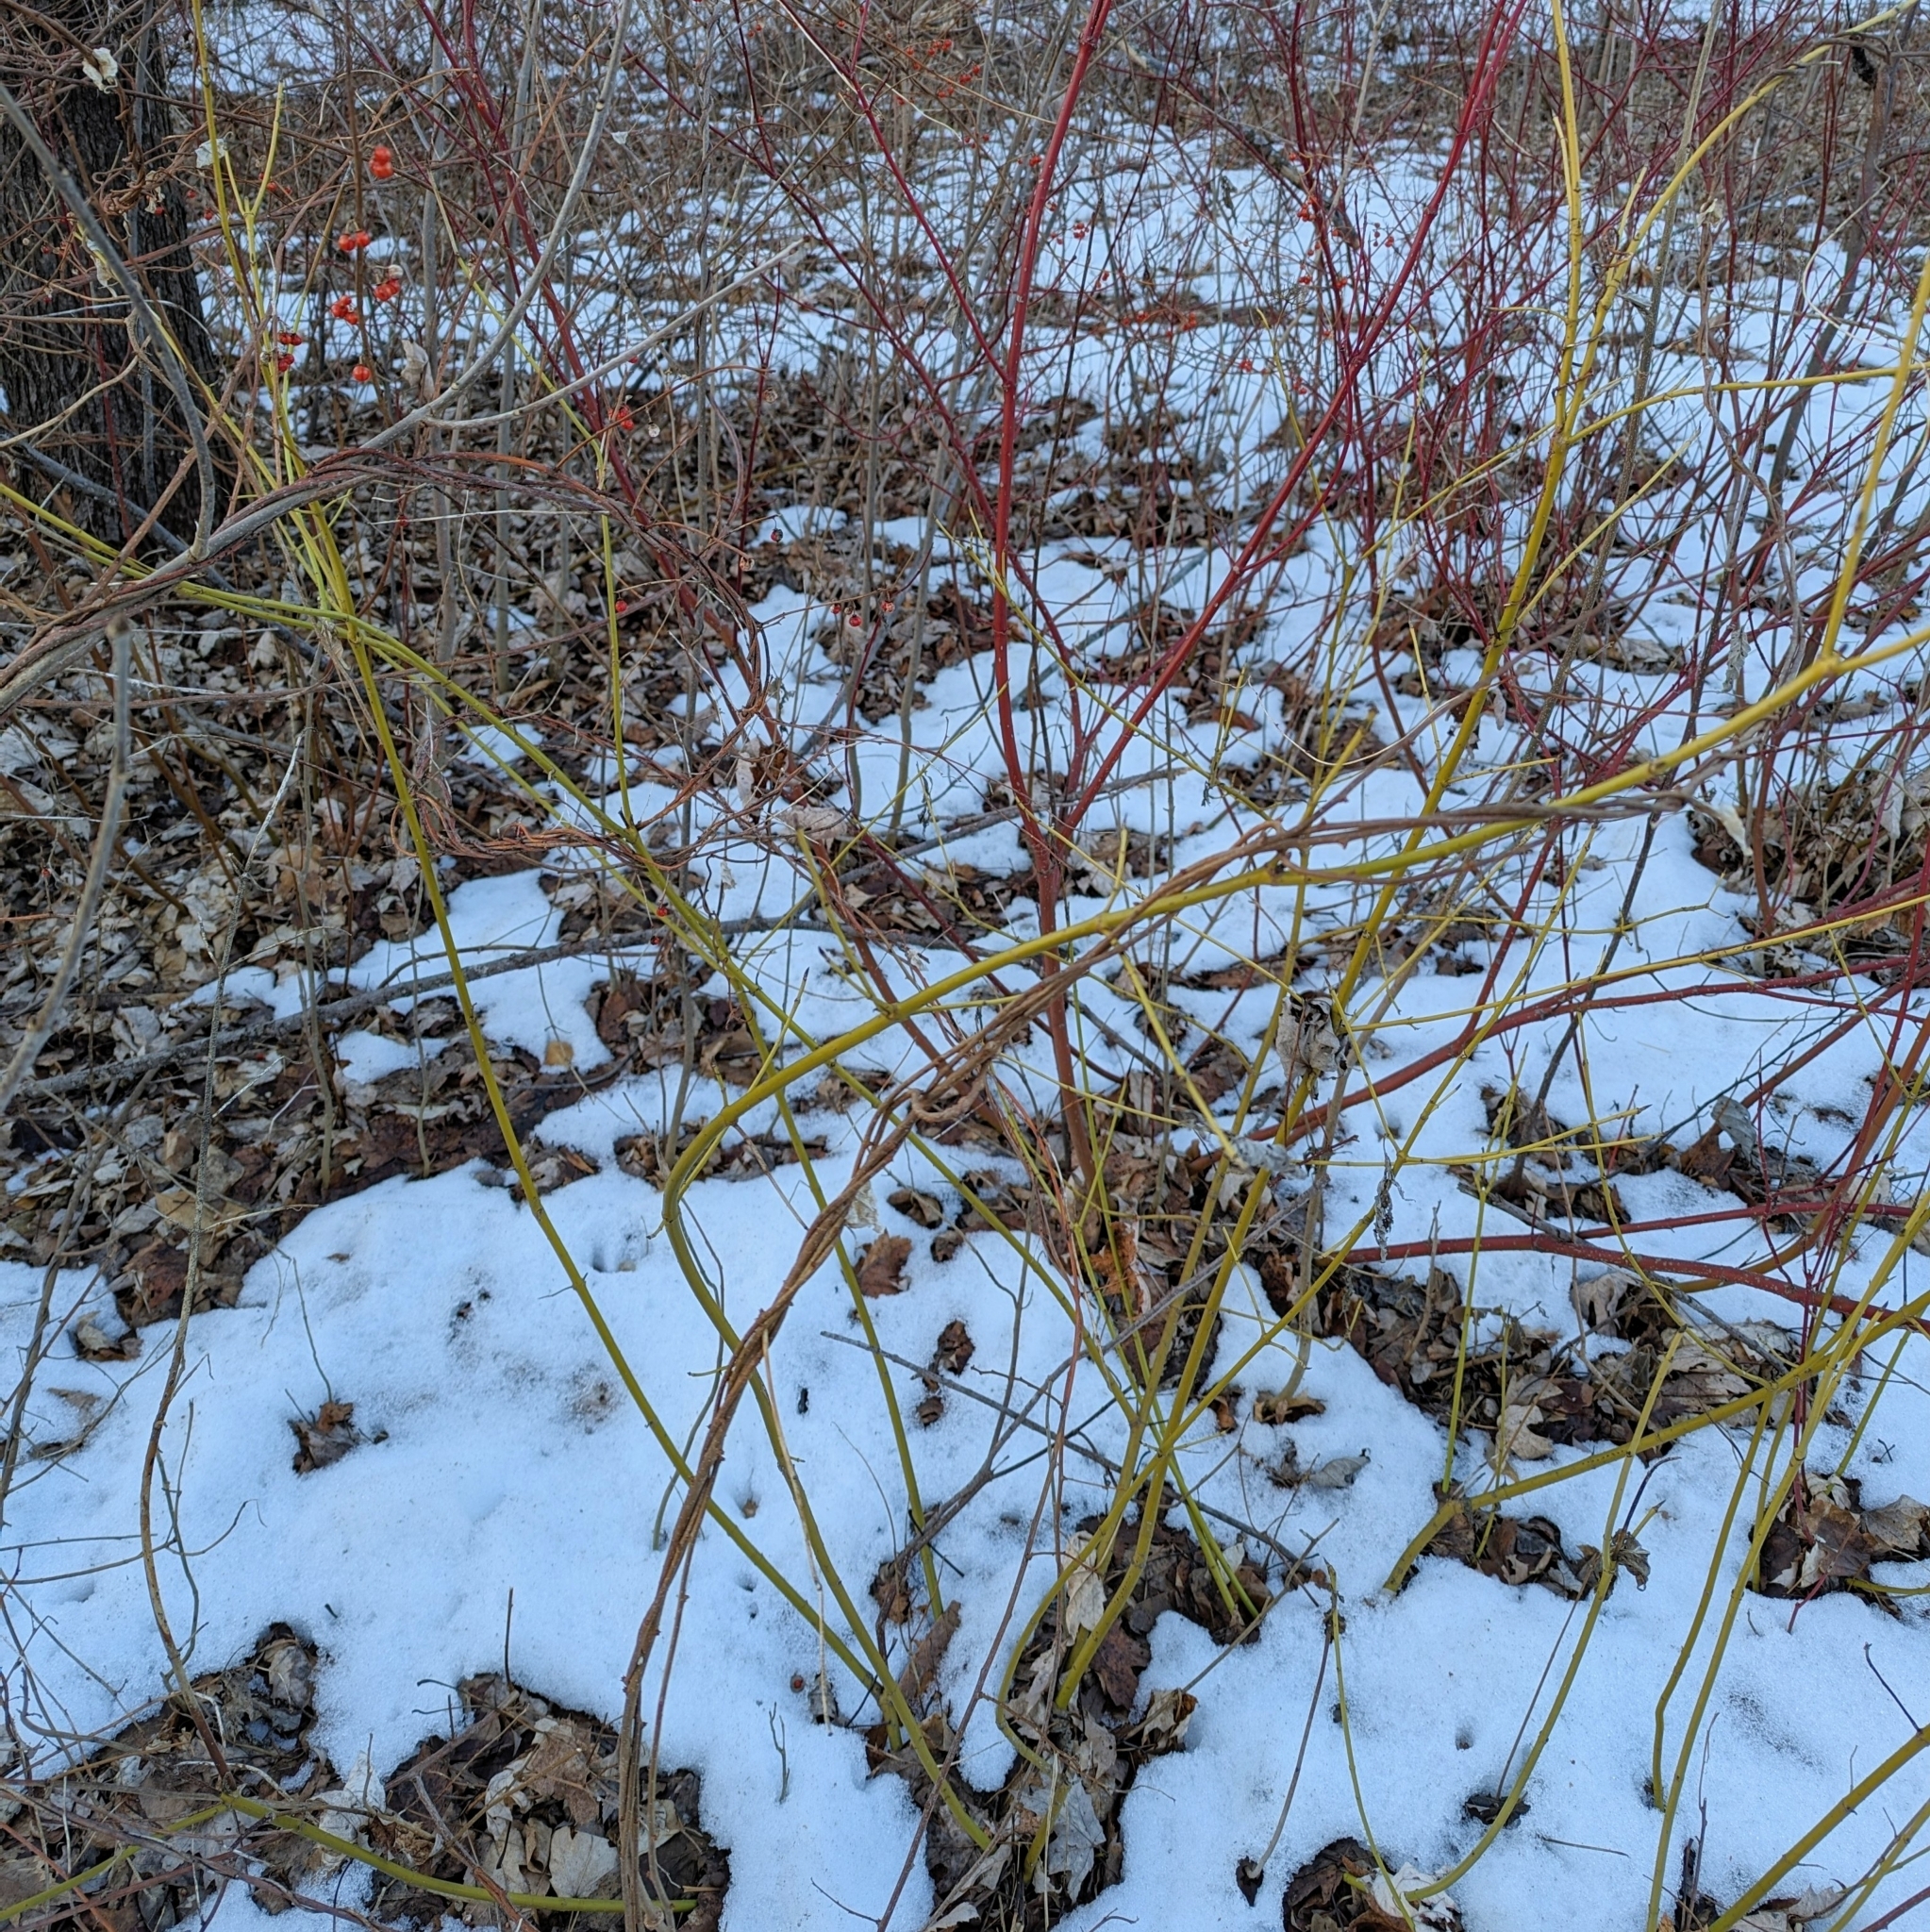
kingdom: Plantae
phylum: Tracheophyta
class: Magnoliopsida
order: Cornales
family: Cornaceae
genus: Cornus
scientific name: Cornus sericea
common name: Red-osier dogwood
